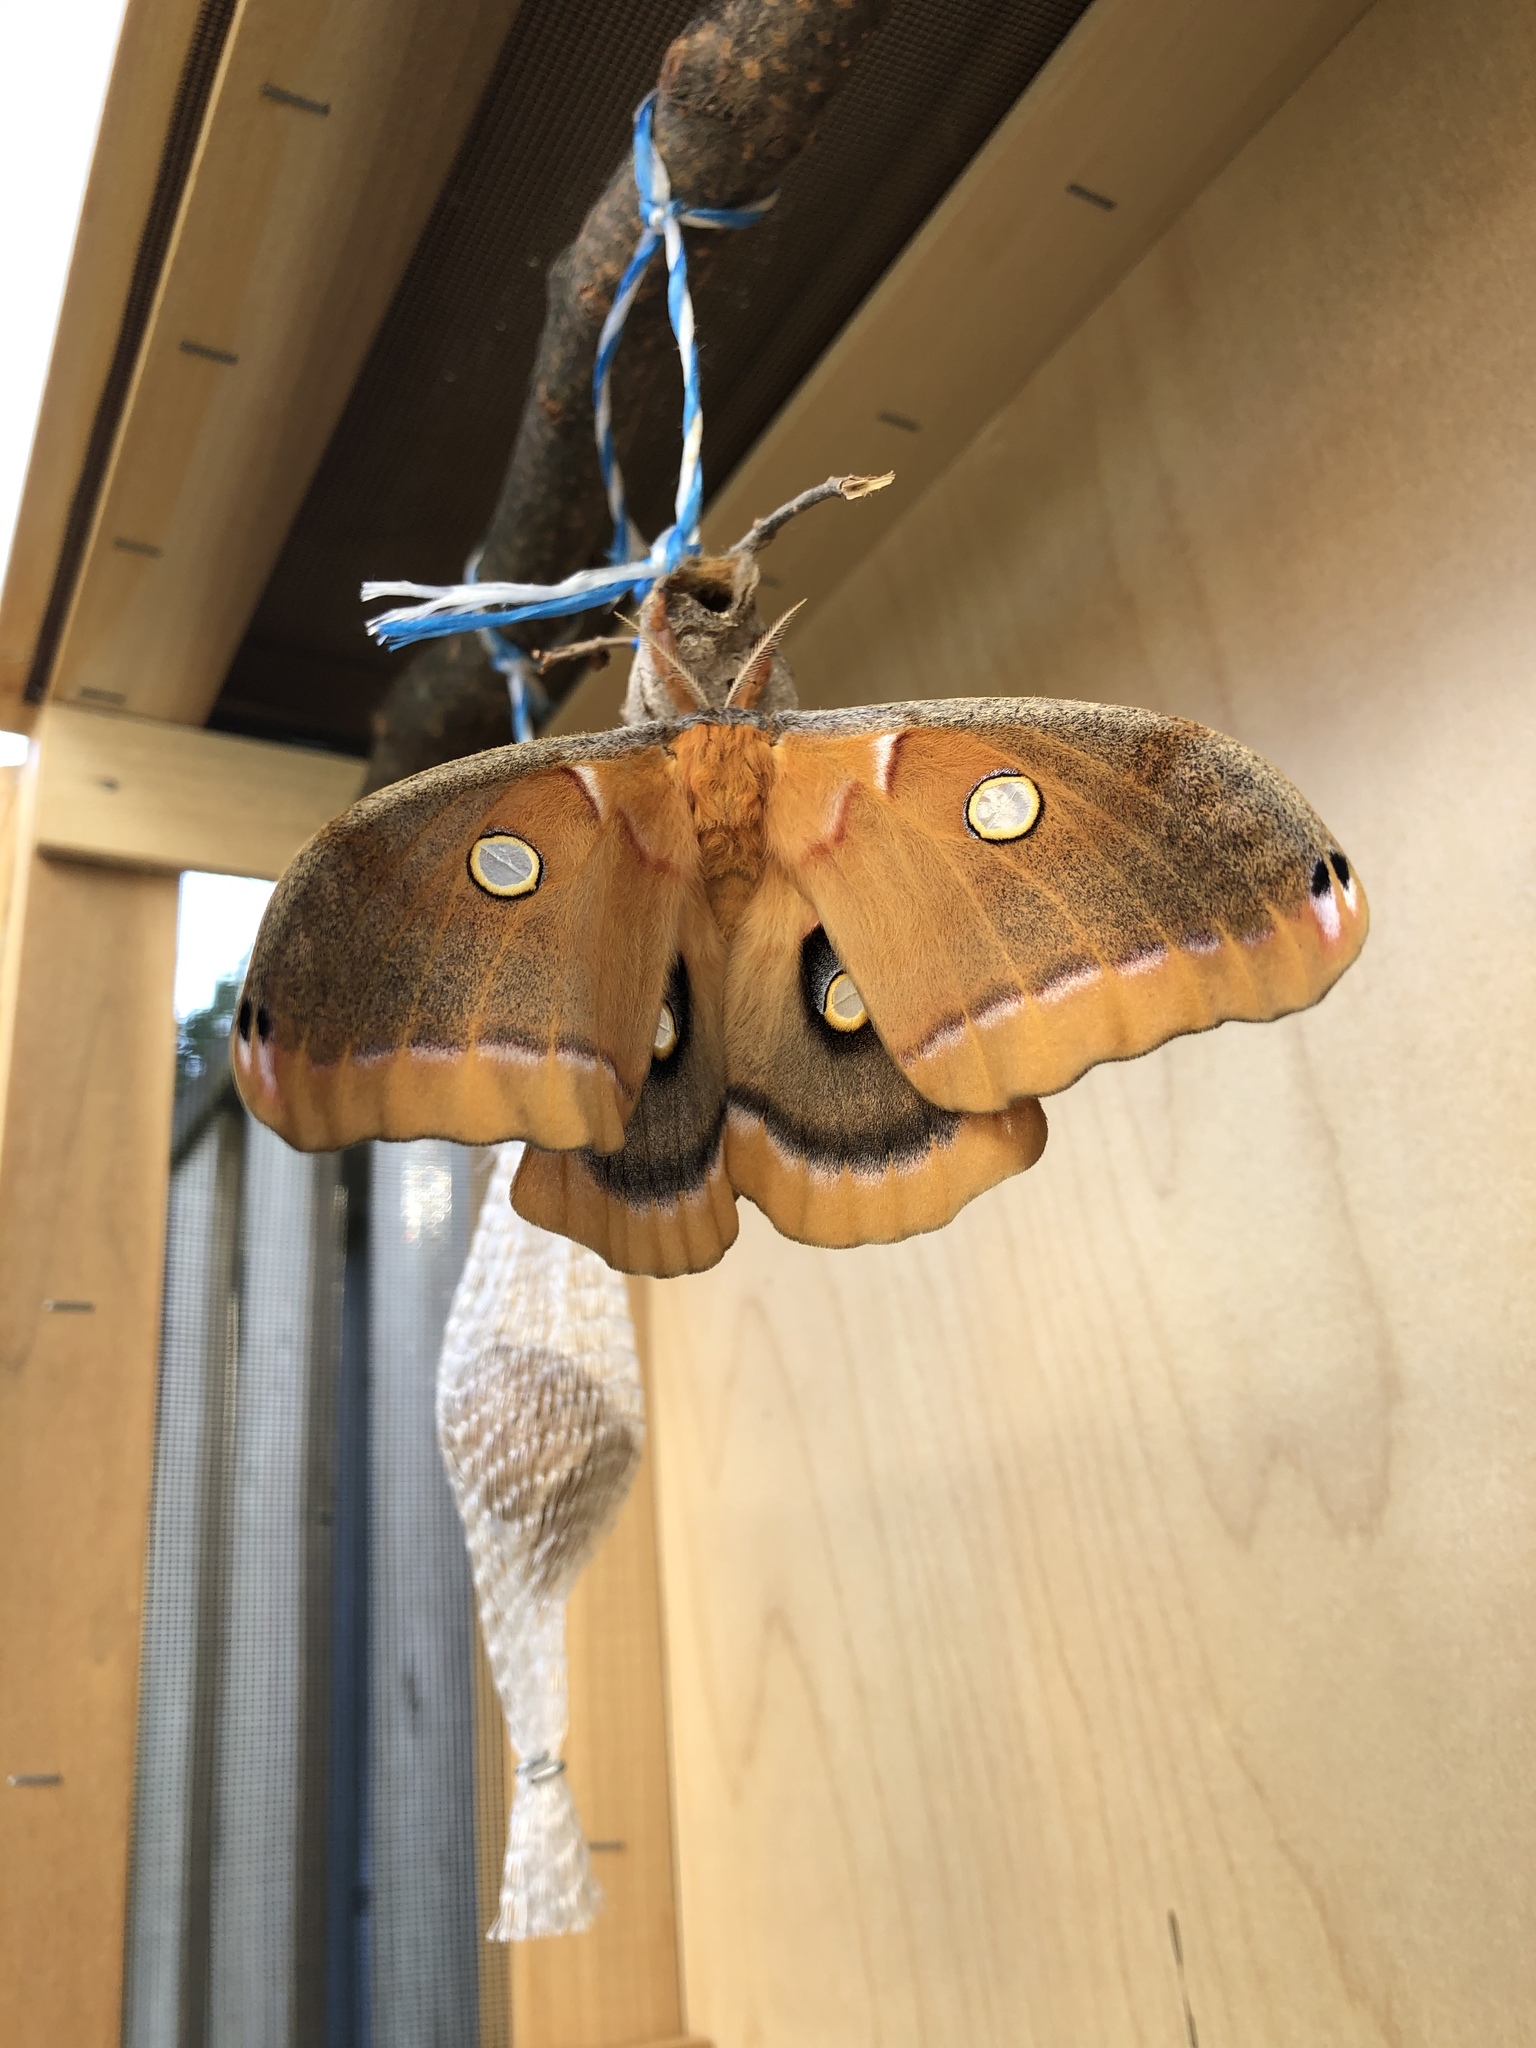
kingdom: Animalia
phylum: Arthropoda
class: Insecta
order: Lepidoptera
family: Saturniidae
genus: Antheraea
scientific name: Antheraea polyphemus
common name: Polyphemus moth
